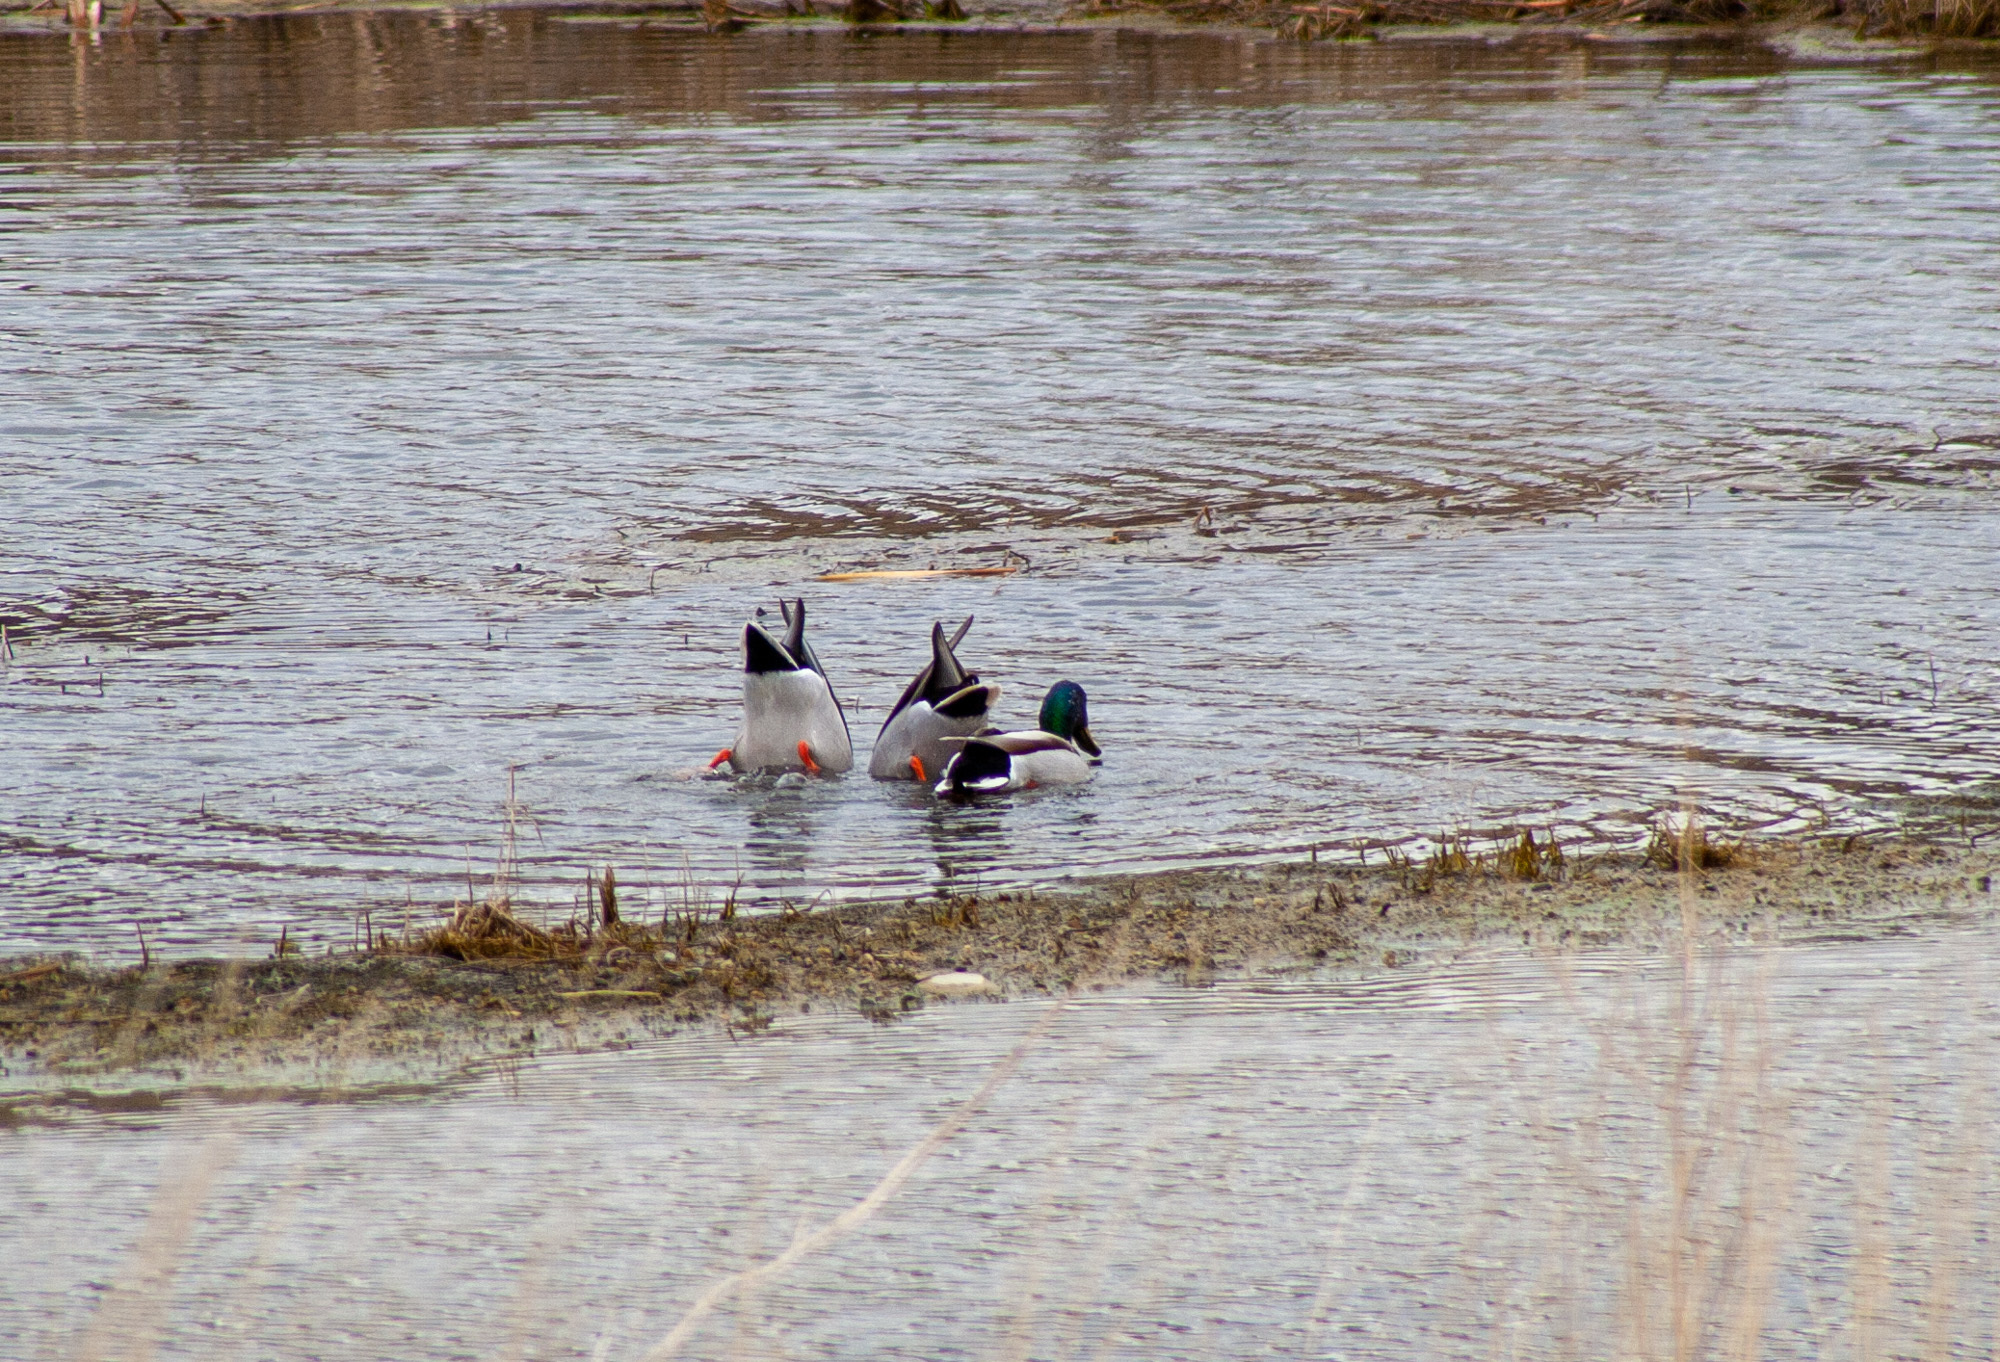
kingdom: Animalia
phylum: Chordata
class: Aves
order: Anseriformes
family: Anatidae
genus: Anas
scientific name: Anas platyrhynchos
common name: Mallard
